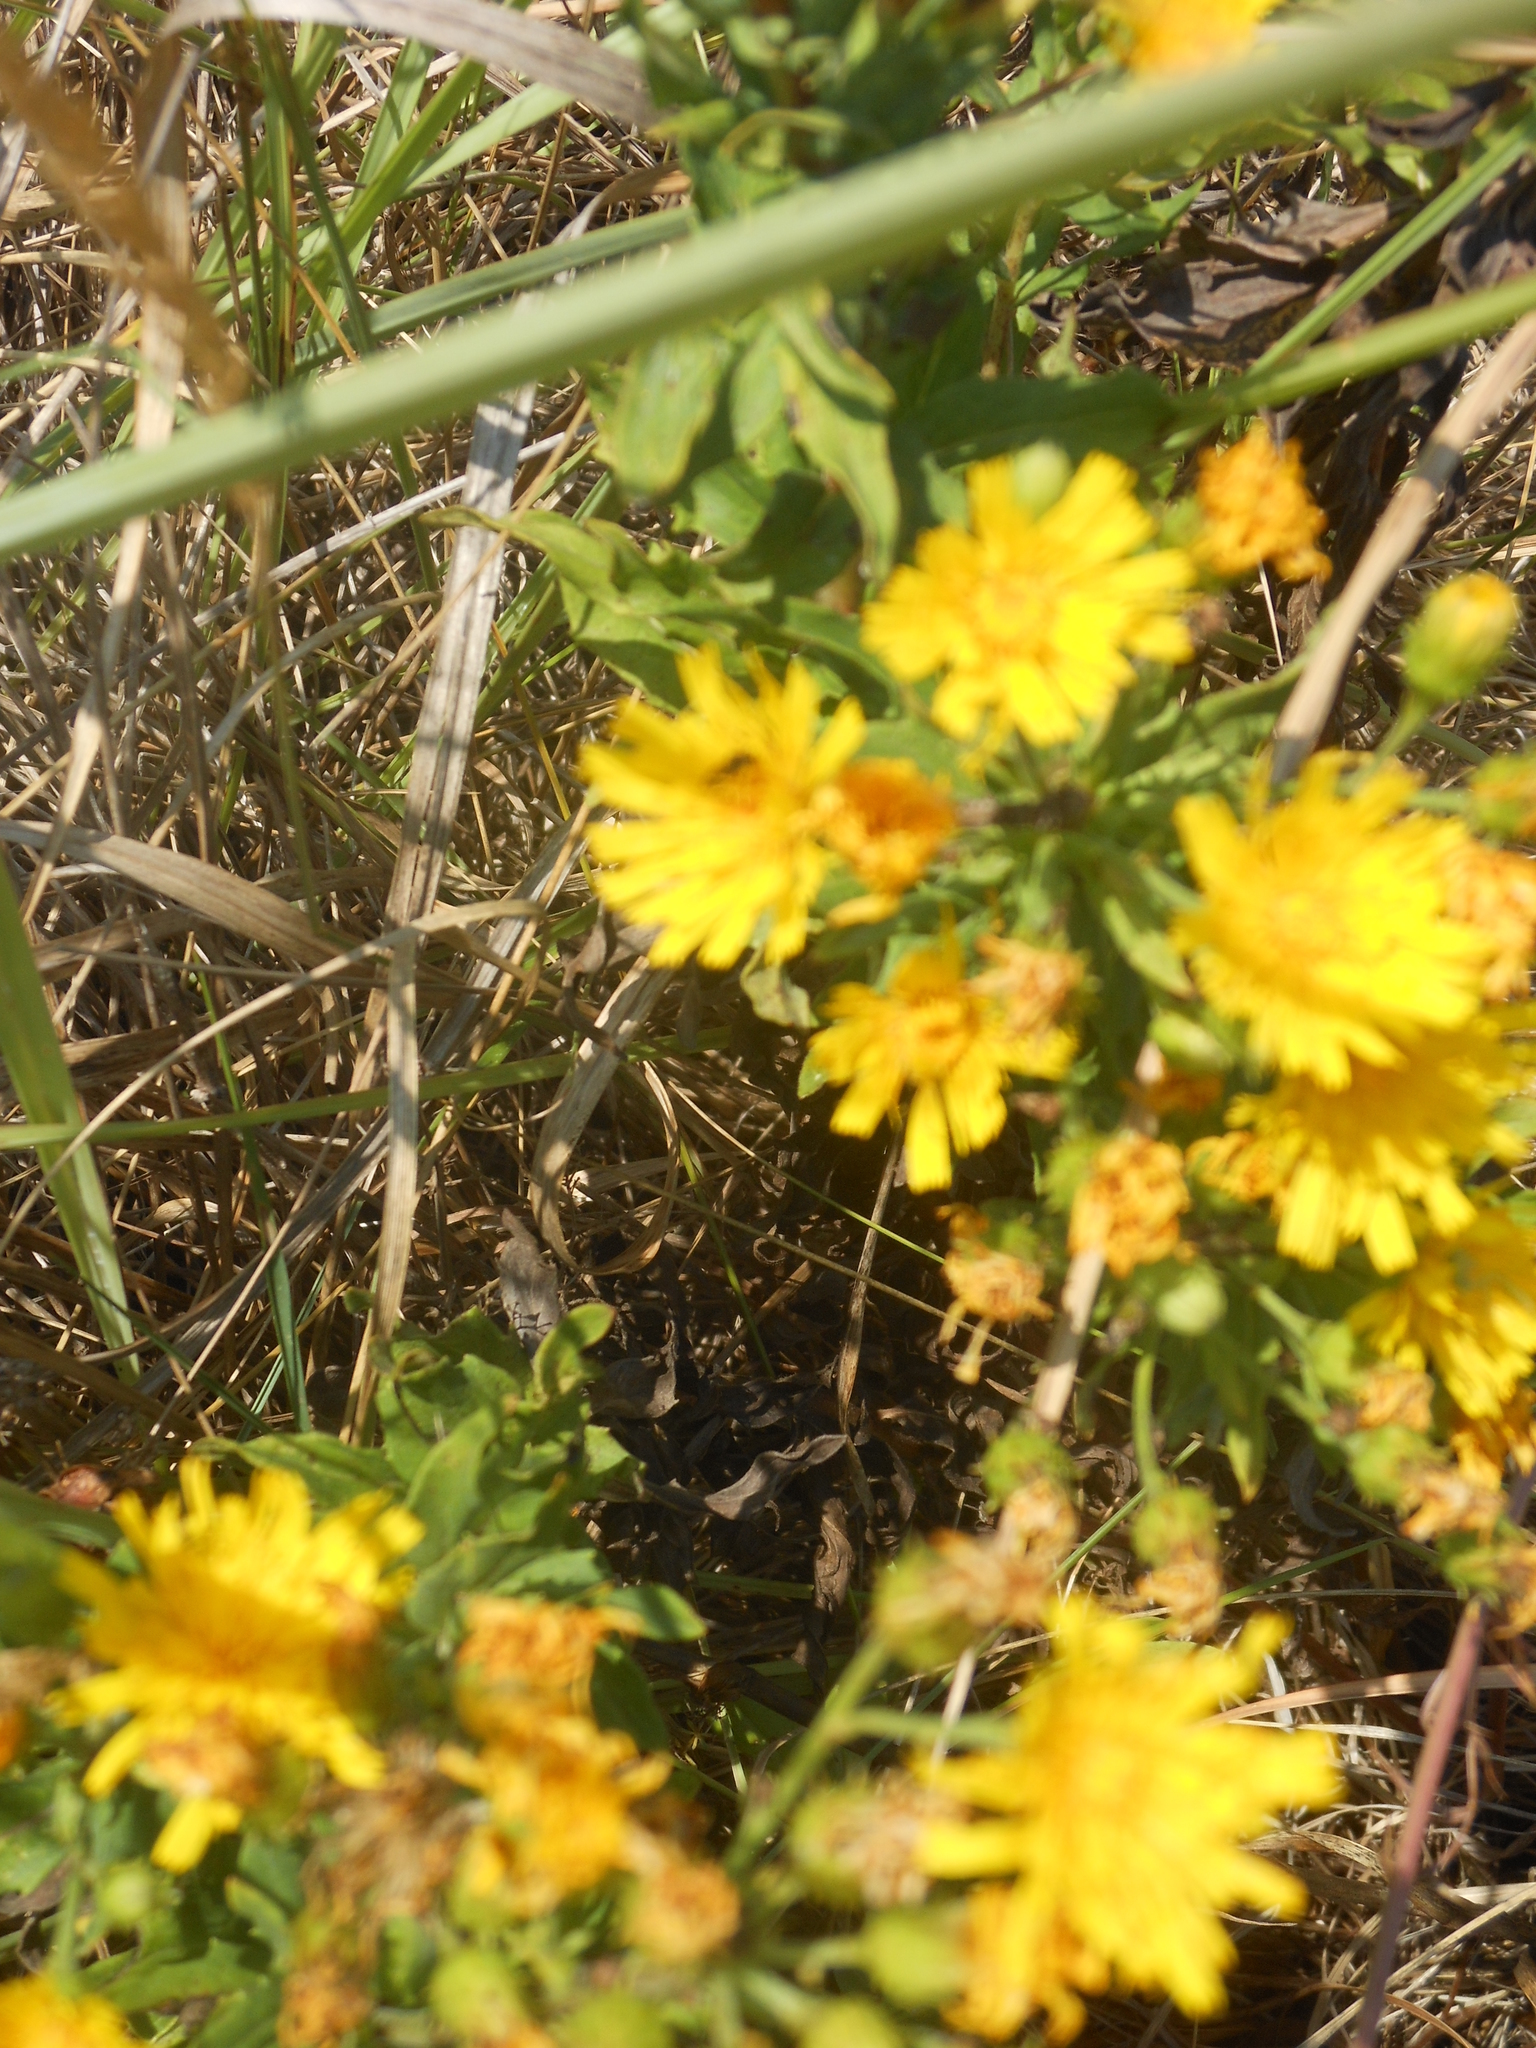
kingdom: Plantae
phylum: Tracheophyta
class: Magnoliopsida
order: Asterales
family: Asteraceae
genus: Dittrichia
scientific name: Dittrichia viscosa
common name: Woody fleabane
